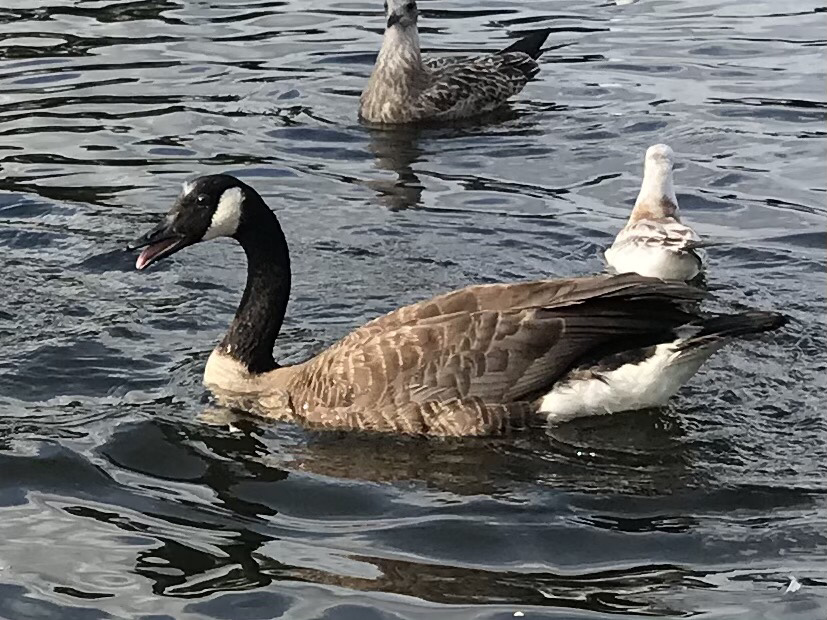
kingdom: Animalia
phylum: Chordata
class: Aves
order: Anseriformes
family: Anatidae
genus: Branta
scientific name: Branta canadensis
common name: Canada goose
